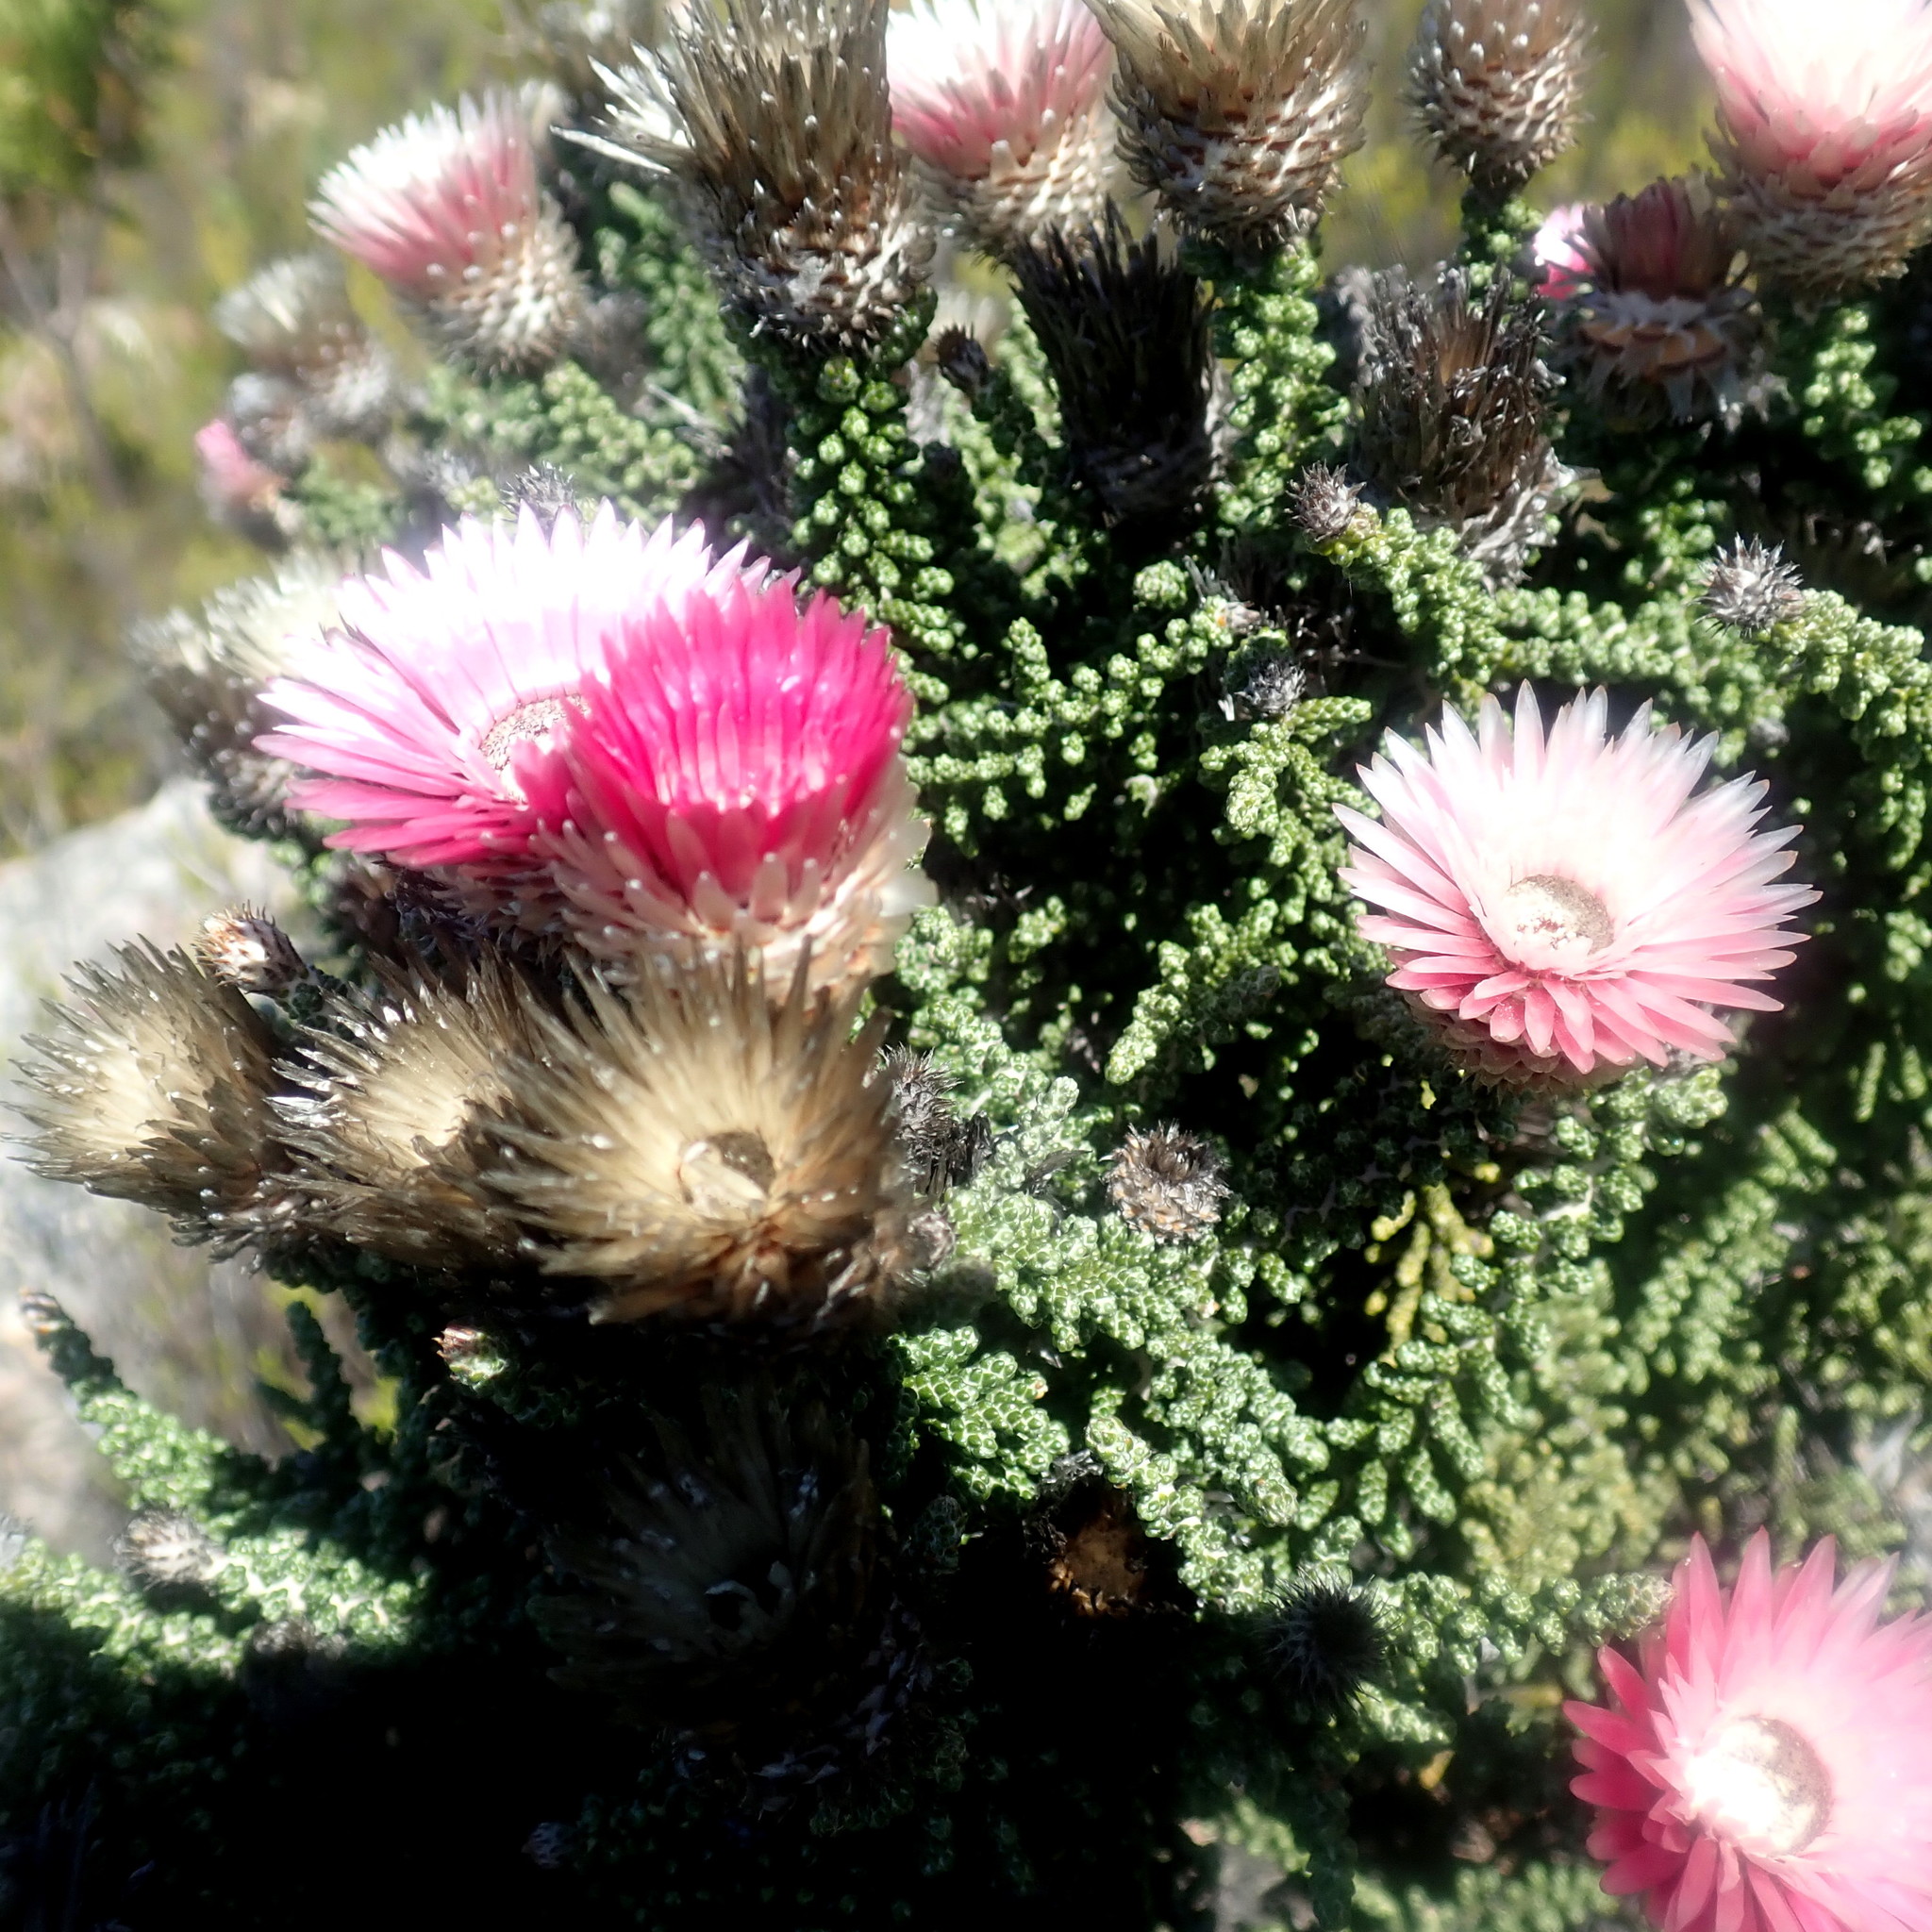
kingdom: Plantae
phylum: Tracheophyta
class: Magnoliopsida
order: Asterales
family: Asteraceae
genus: Phaenocoma
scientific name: Phaenocoma prolifera
